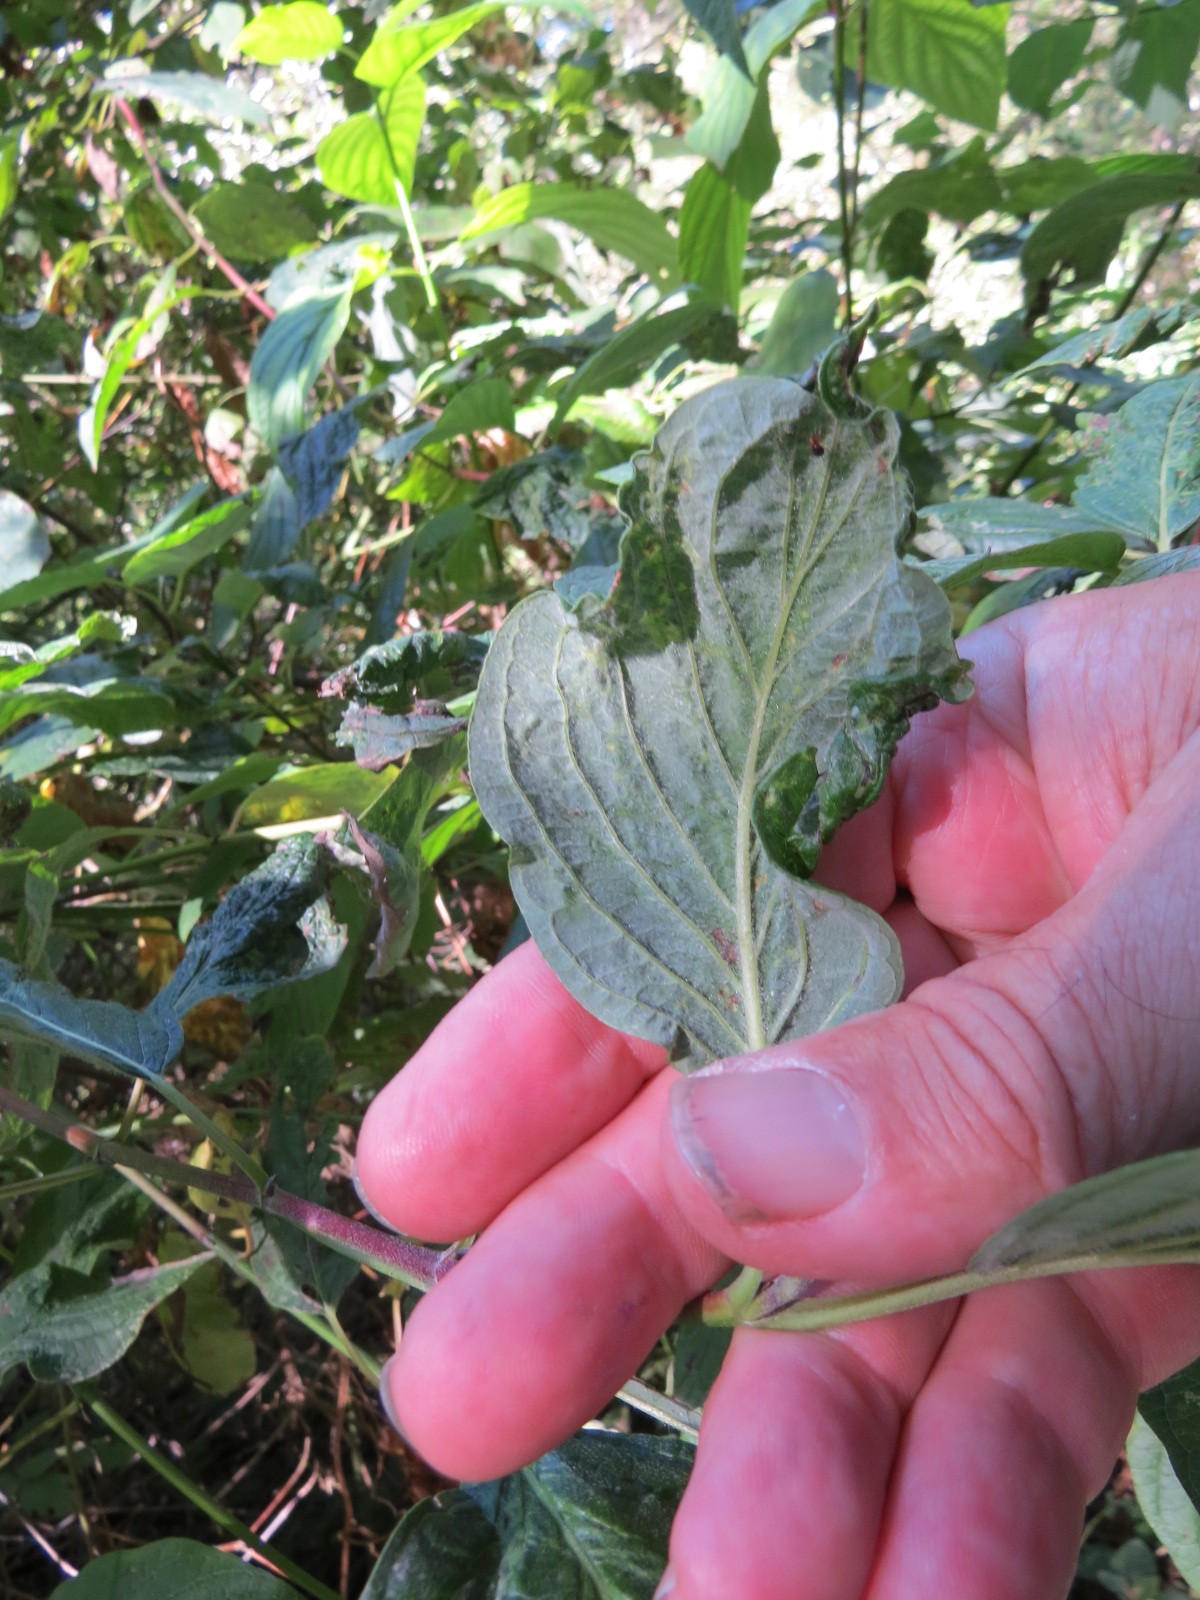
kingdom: Plantae
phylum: Tracheophyta
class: Magnoliopsida
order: Cornales
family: Cornaceae
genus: Cornus
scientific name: Cornus sericea
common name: Red-osier dogwood
